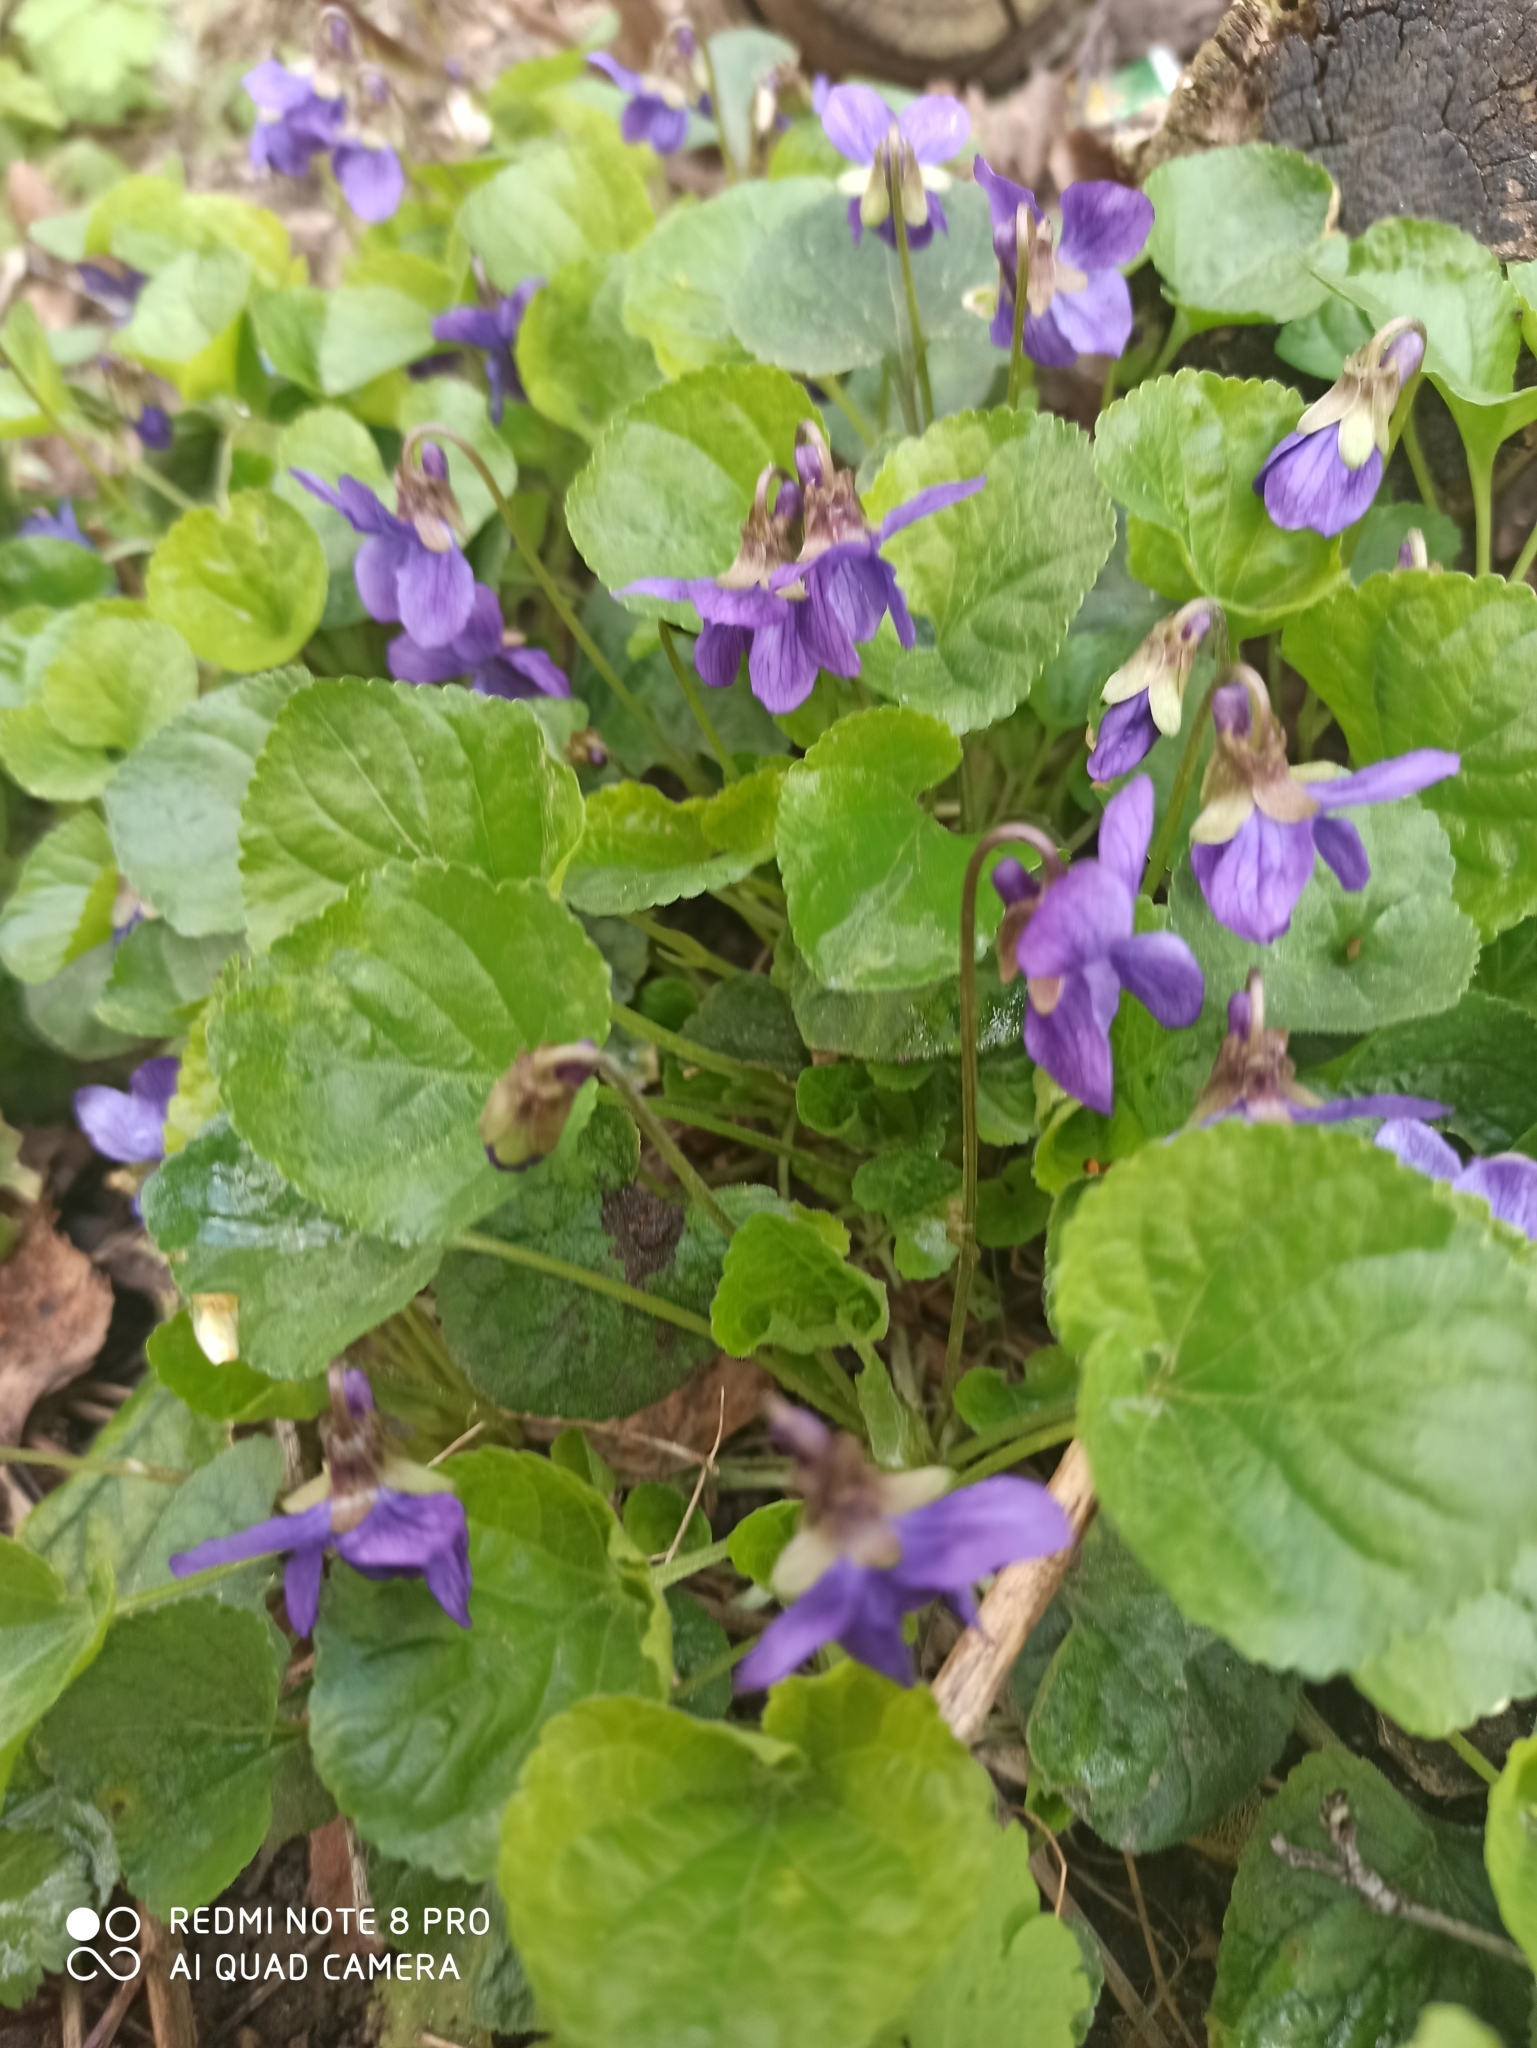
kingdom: Plantae
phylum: Tracheophyta
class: Magnoliopsida
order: Malpighiales
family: Violaceae
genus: Viola
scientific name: Viola odorata
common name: Sweet violet
